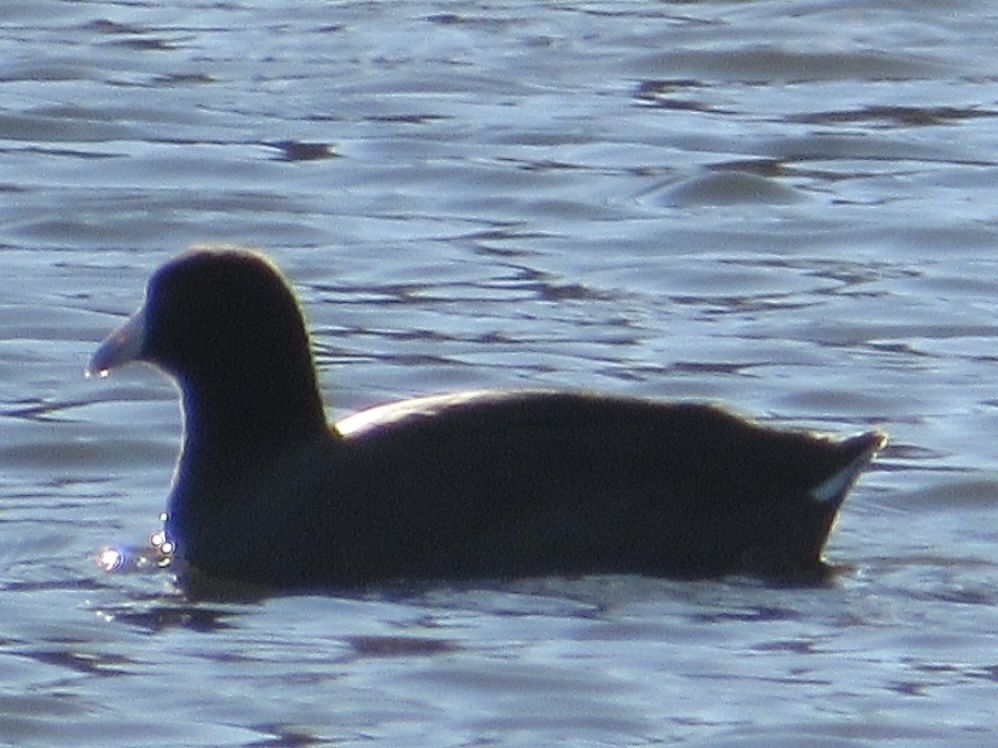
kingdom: Animalia
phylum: Chordata
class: Aves
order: Gruiformes
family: Rallidae
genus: Fulica
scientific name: Fulica americana
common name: American coot
